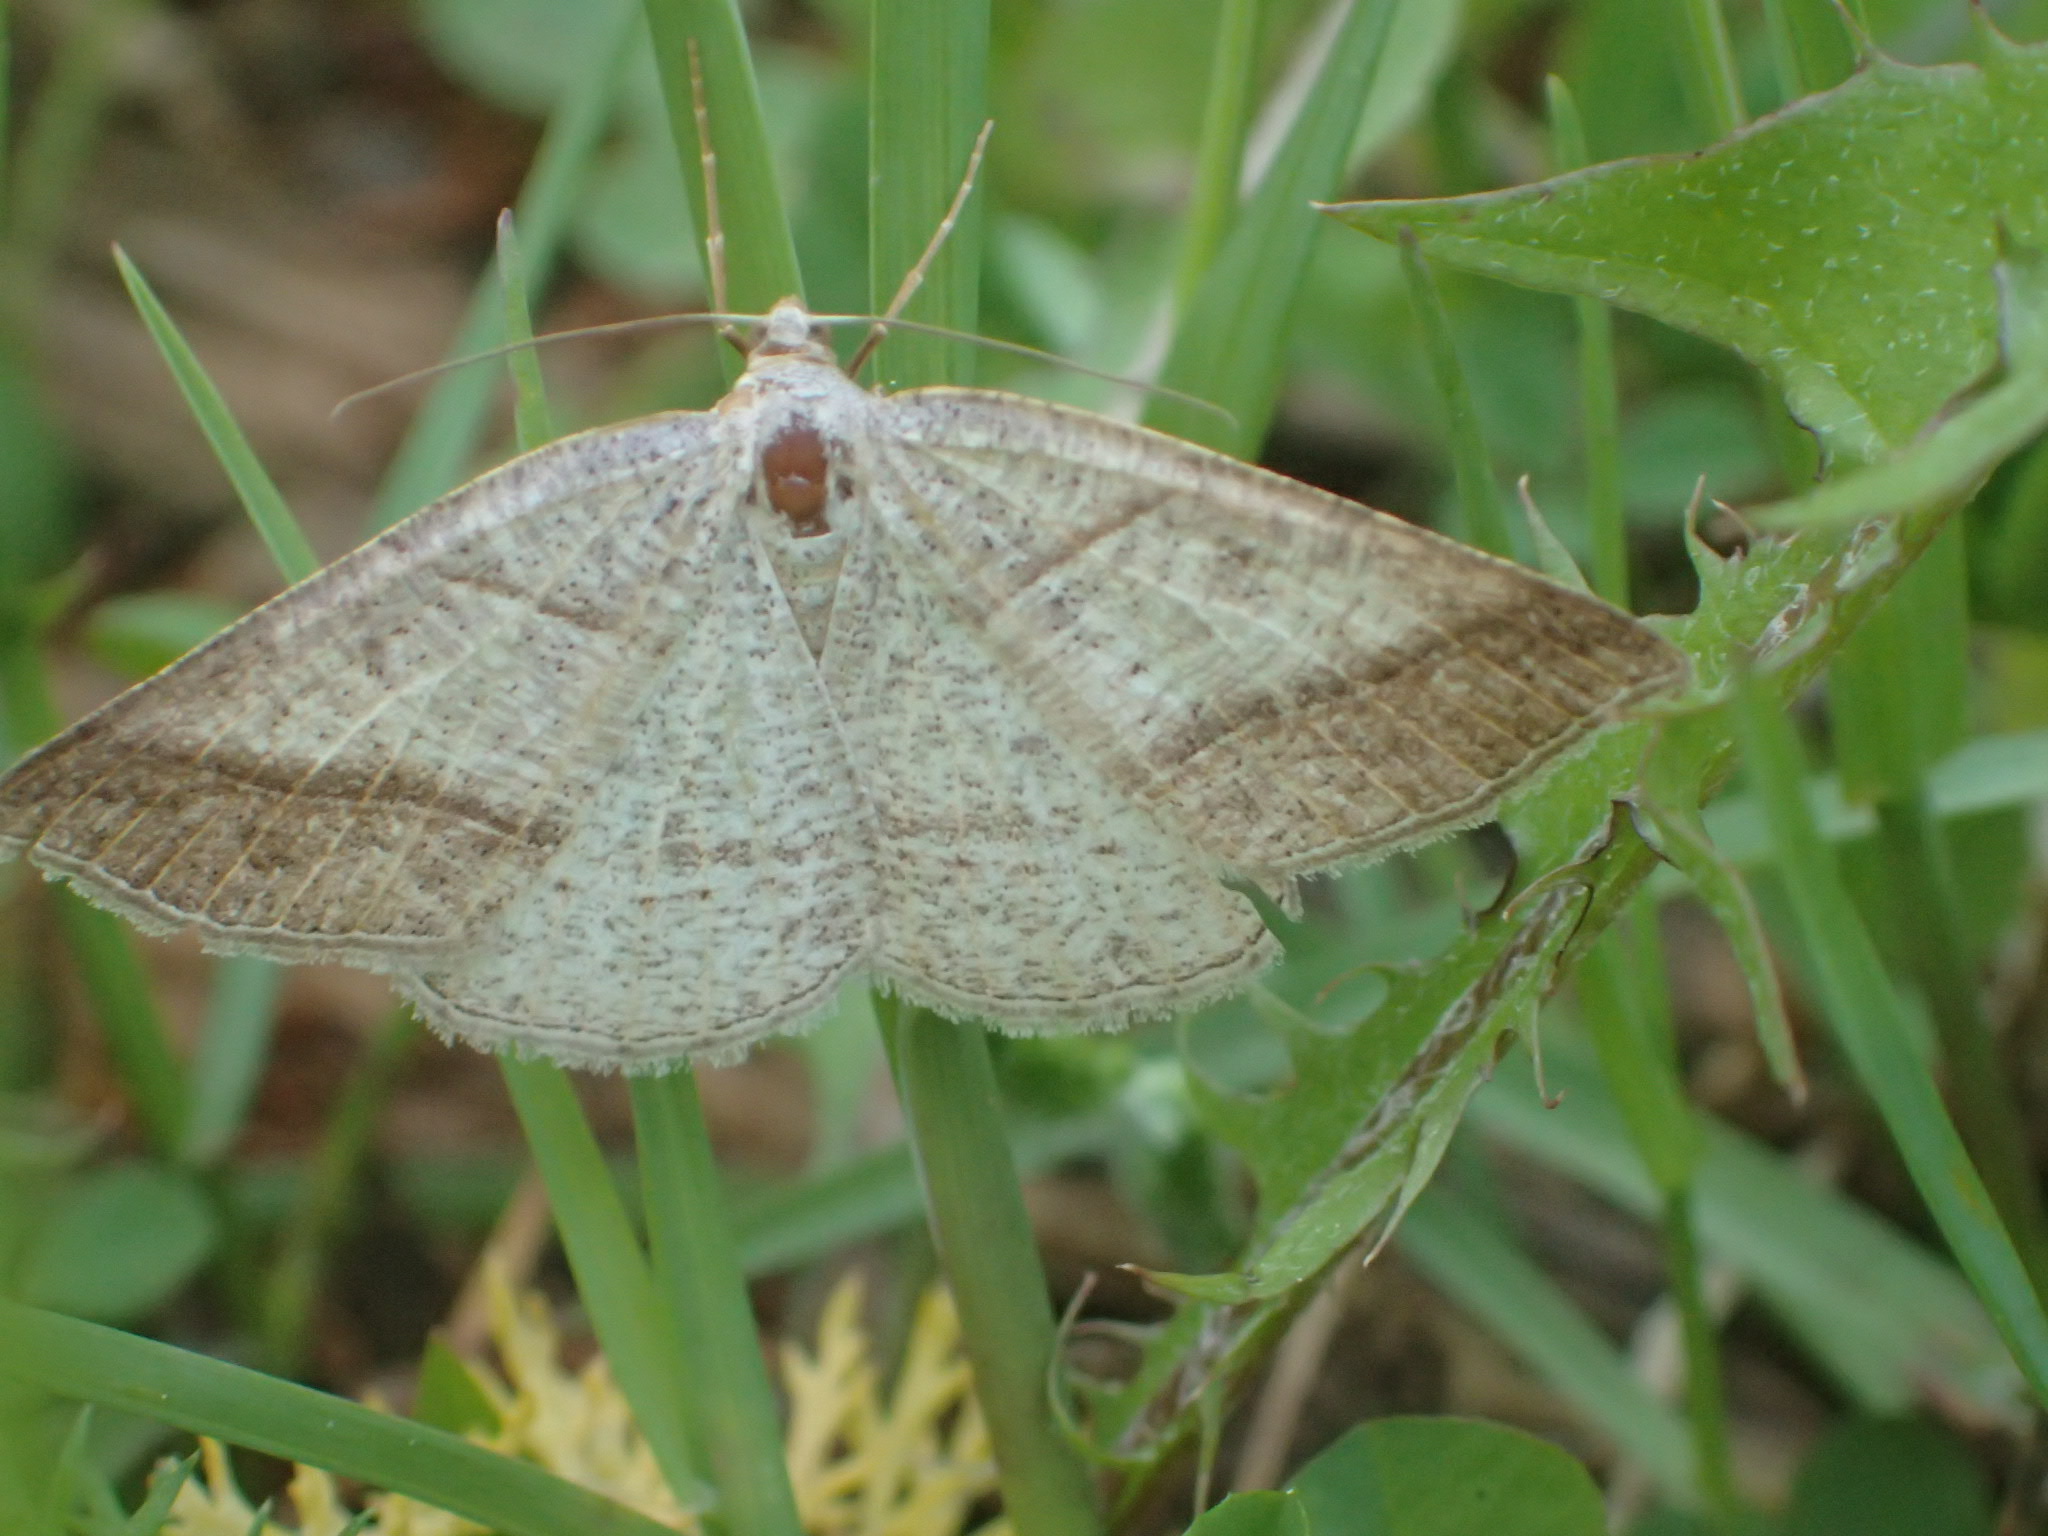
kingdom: Animalia
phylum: Arthropoda
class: Insecta
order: Lepidoptera
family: Pterophoridae
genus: Pterophorus
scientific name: Pterophorus Petrophora subaequaria
